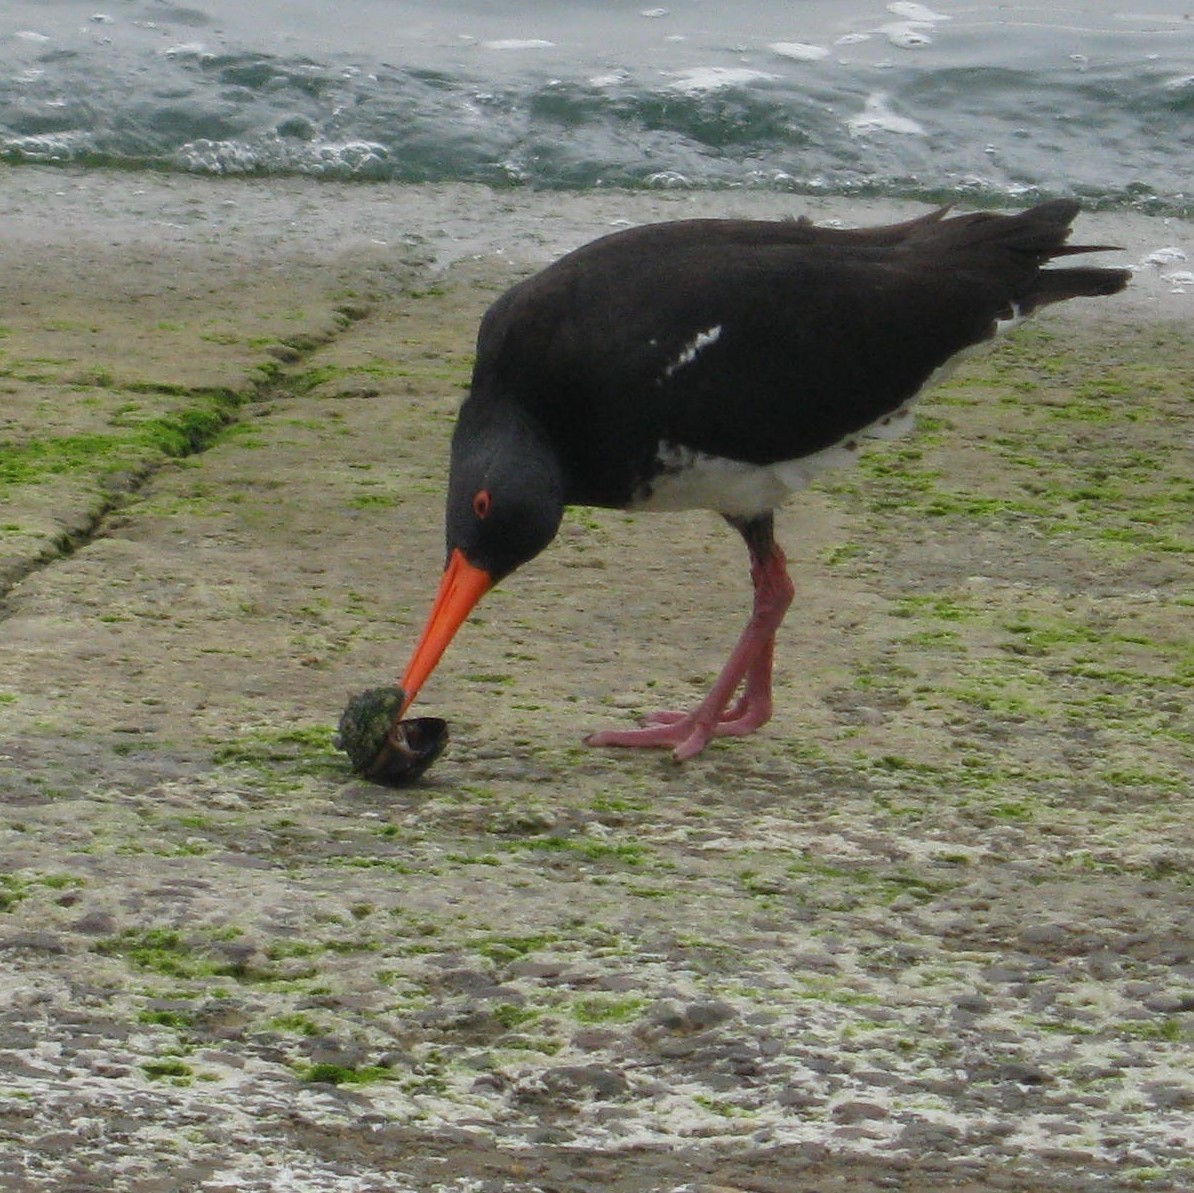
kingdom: Animalia
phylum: Chordata
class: Aves
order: Charadriiformes
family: Haematopodidae
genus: Haematopus
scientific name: Haematopus unicolor
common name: Variable oystercatcher
